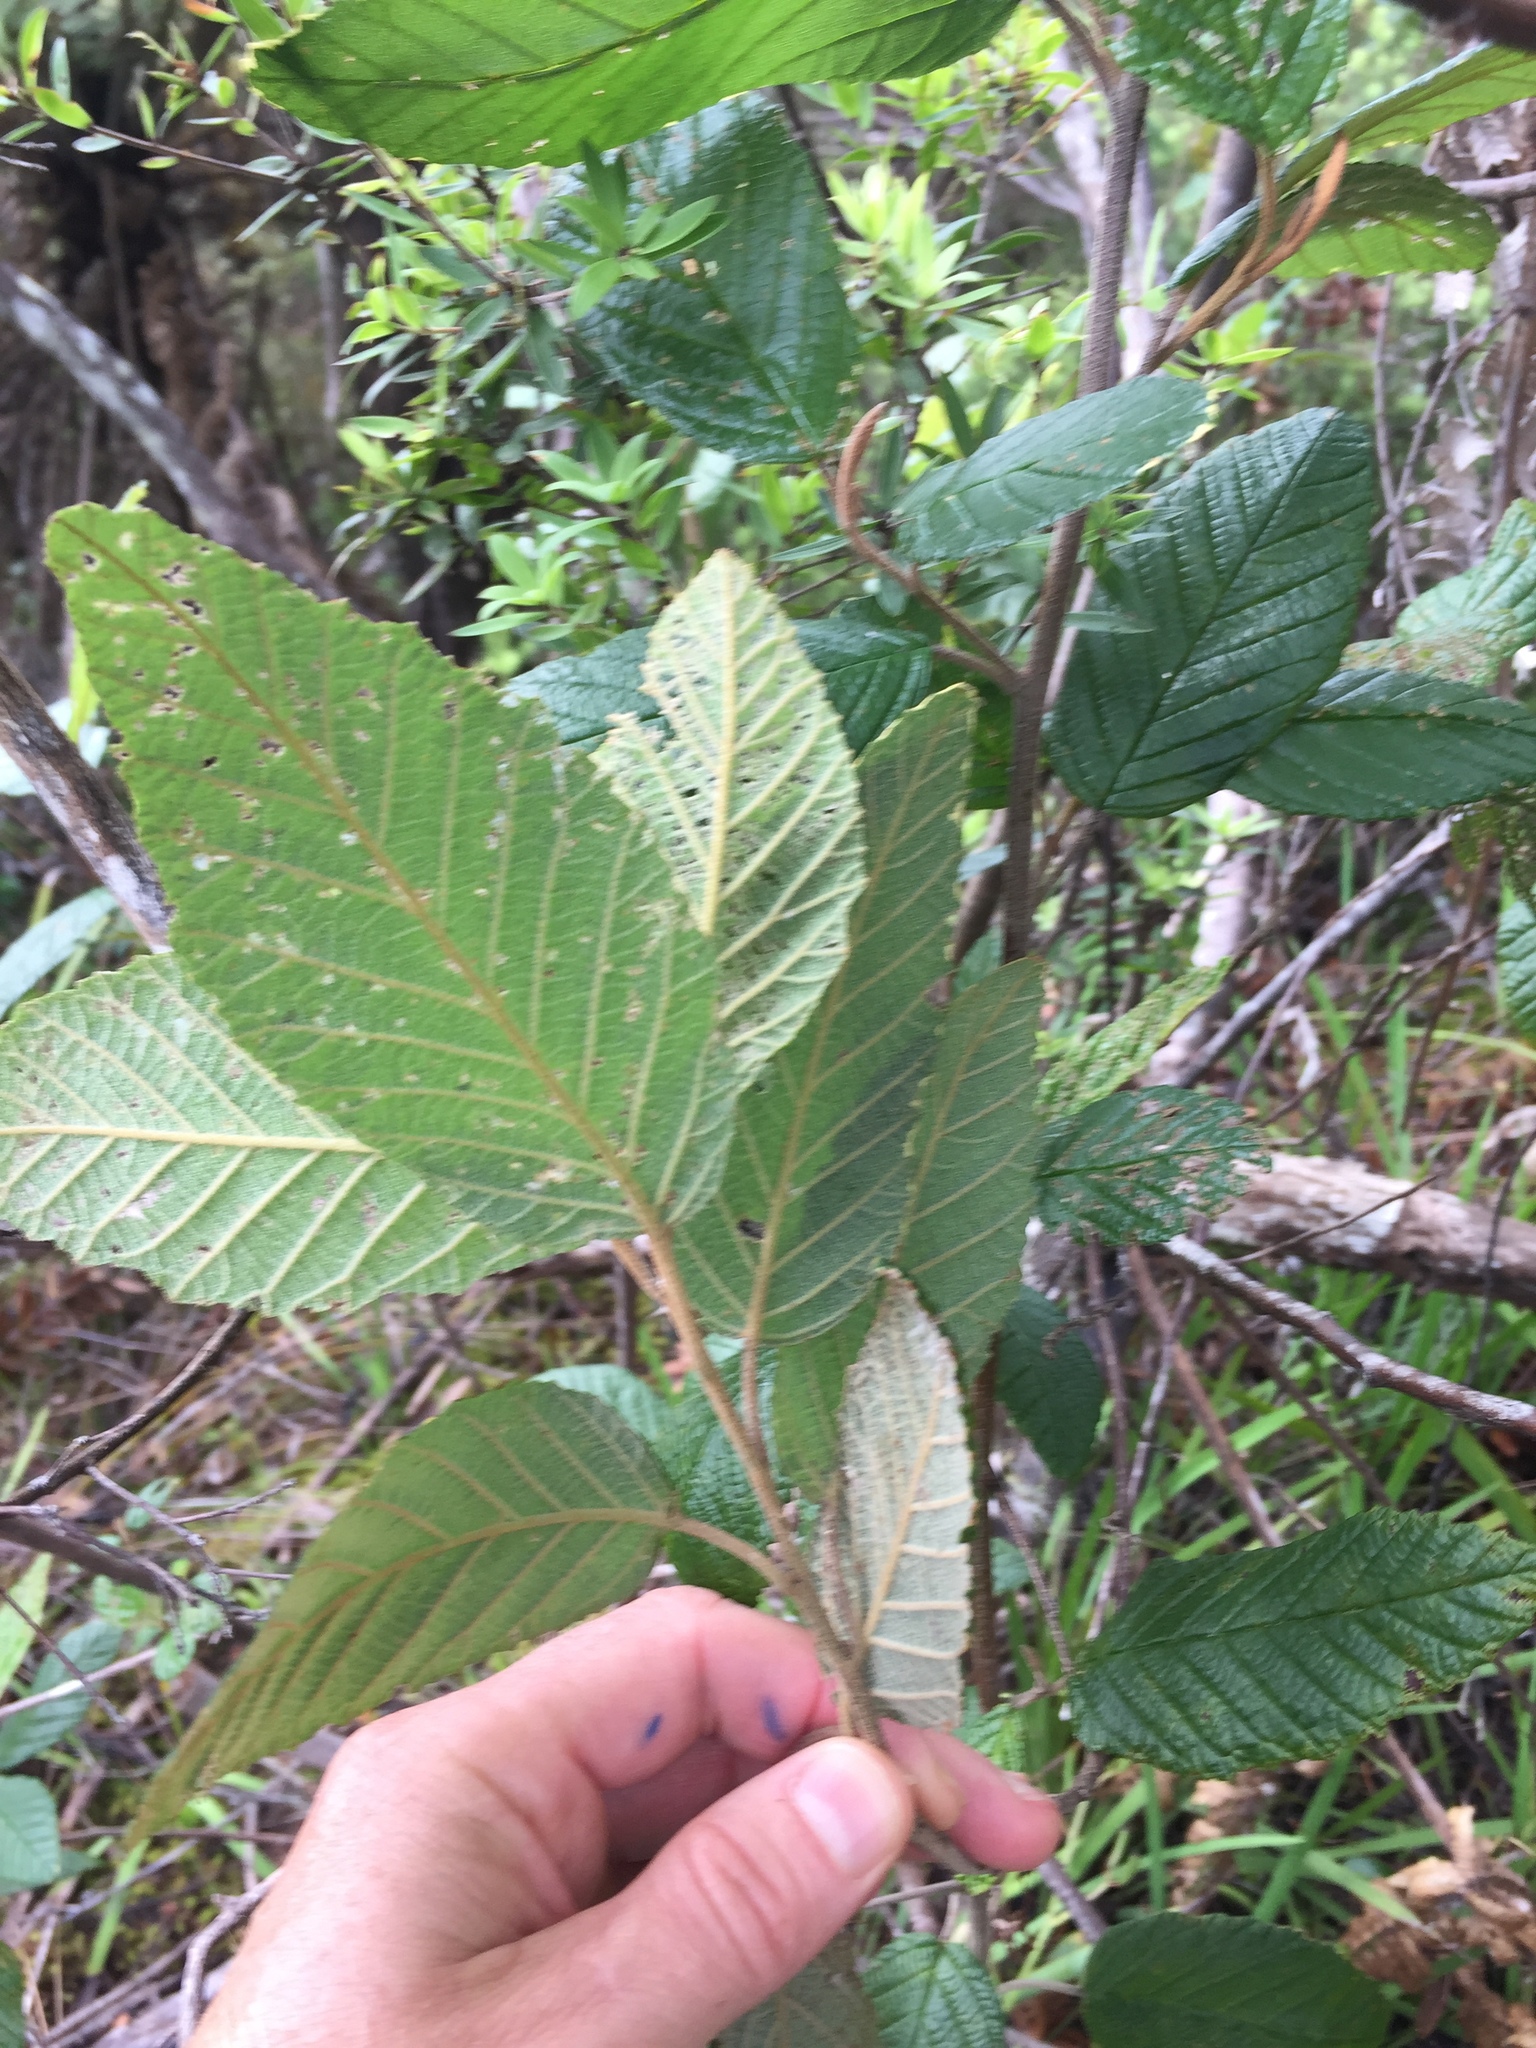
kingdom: Plantae
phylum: Tracheophyta
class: Magnoliopsida
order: Rosales
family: Rhamnaceae
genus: Pomaderris
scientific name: Pomaderris aspera
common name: Hazel pomaderris
